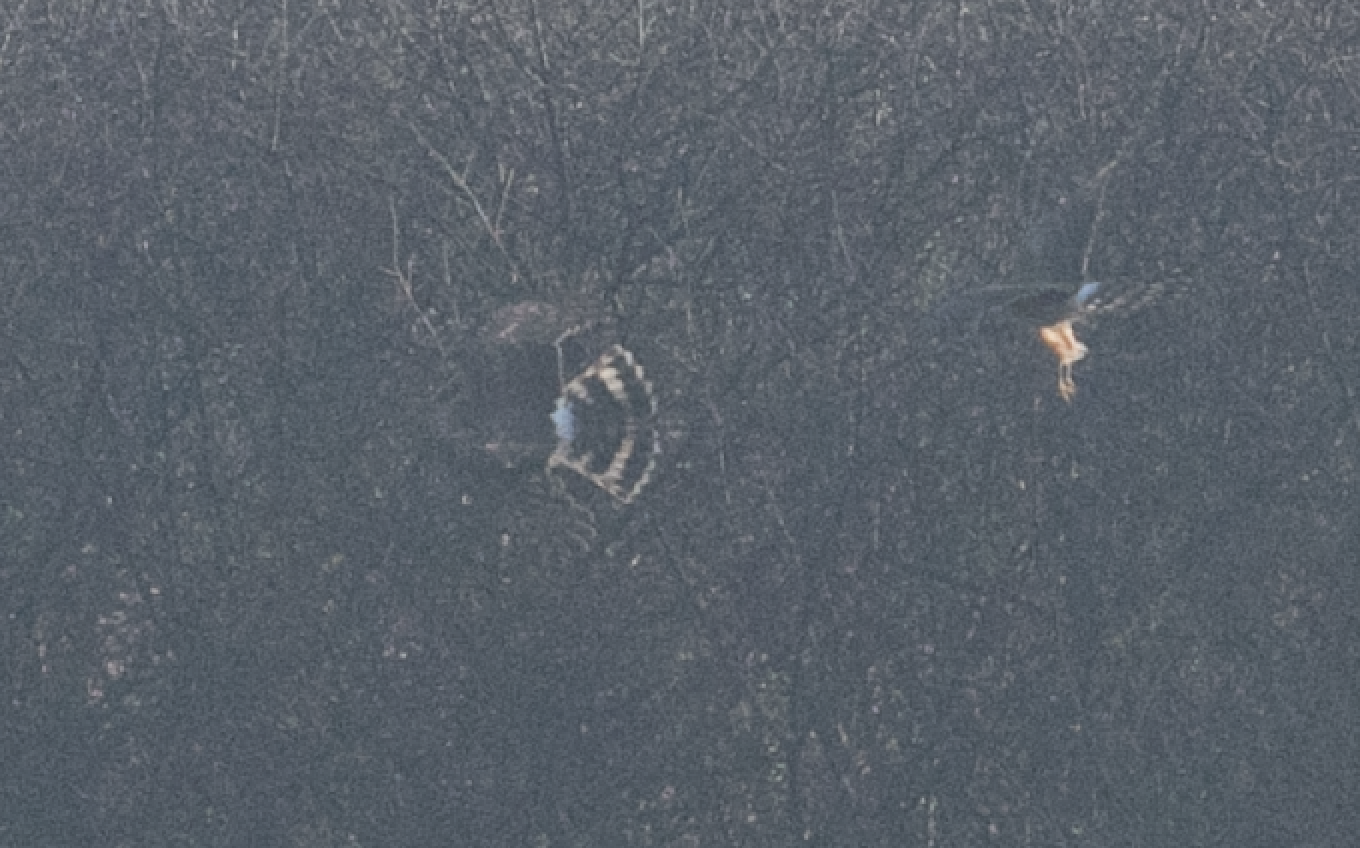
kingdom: Animalia
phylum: Chordata
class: Aves
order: Accipitriformes
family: Accipitridae
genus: Circus
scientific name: Circus cyaneus
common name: Hen harrier
